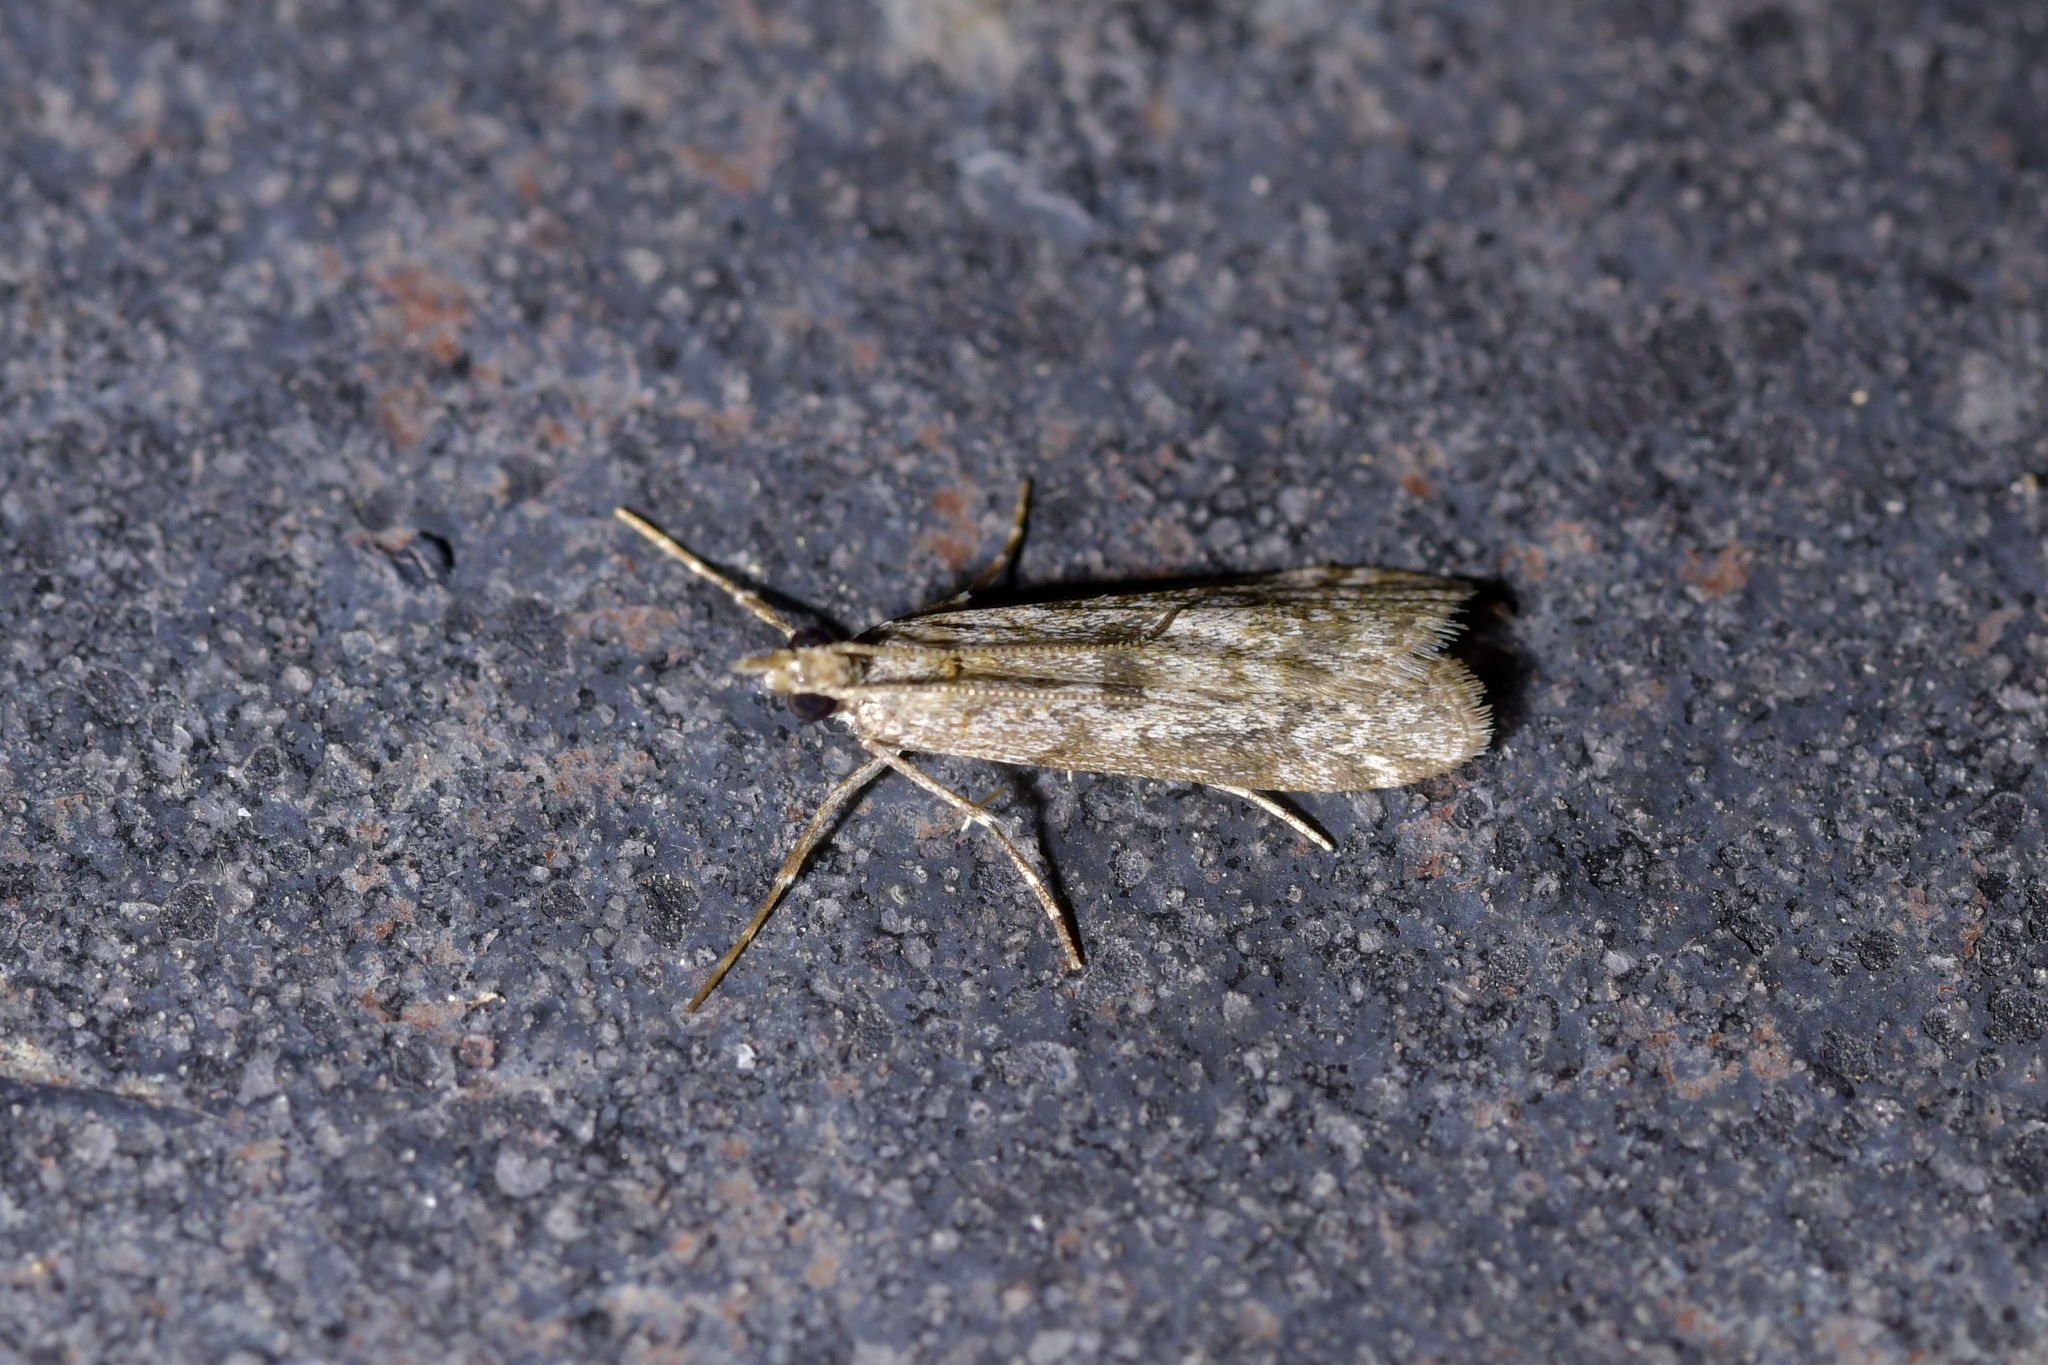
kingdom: Animalia
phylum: Arthropoda
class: Insecta
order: Lepidoptera
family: Crambidae
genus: Eudonia
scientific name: Eudonia leptalea
